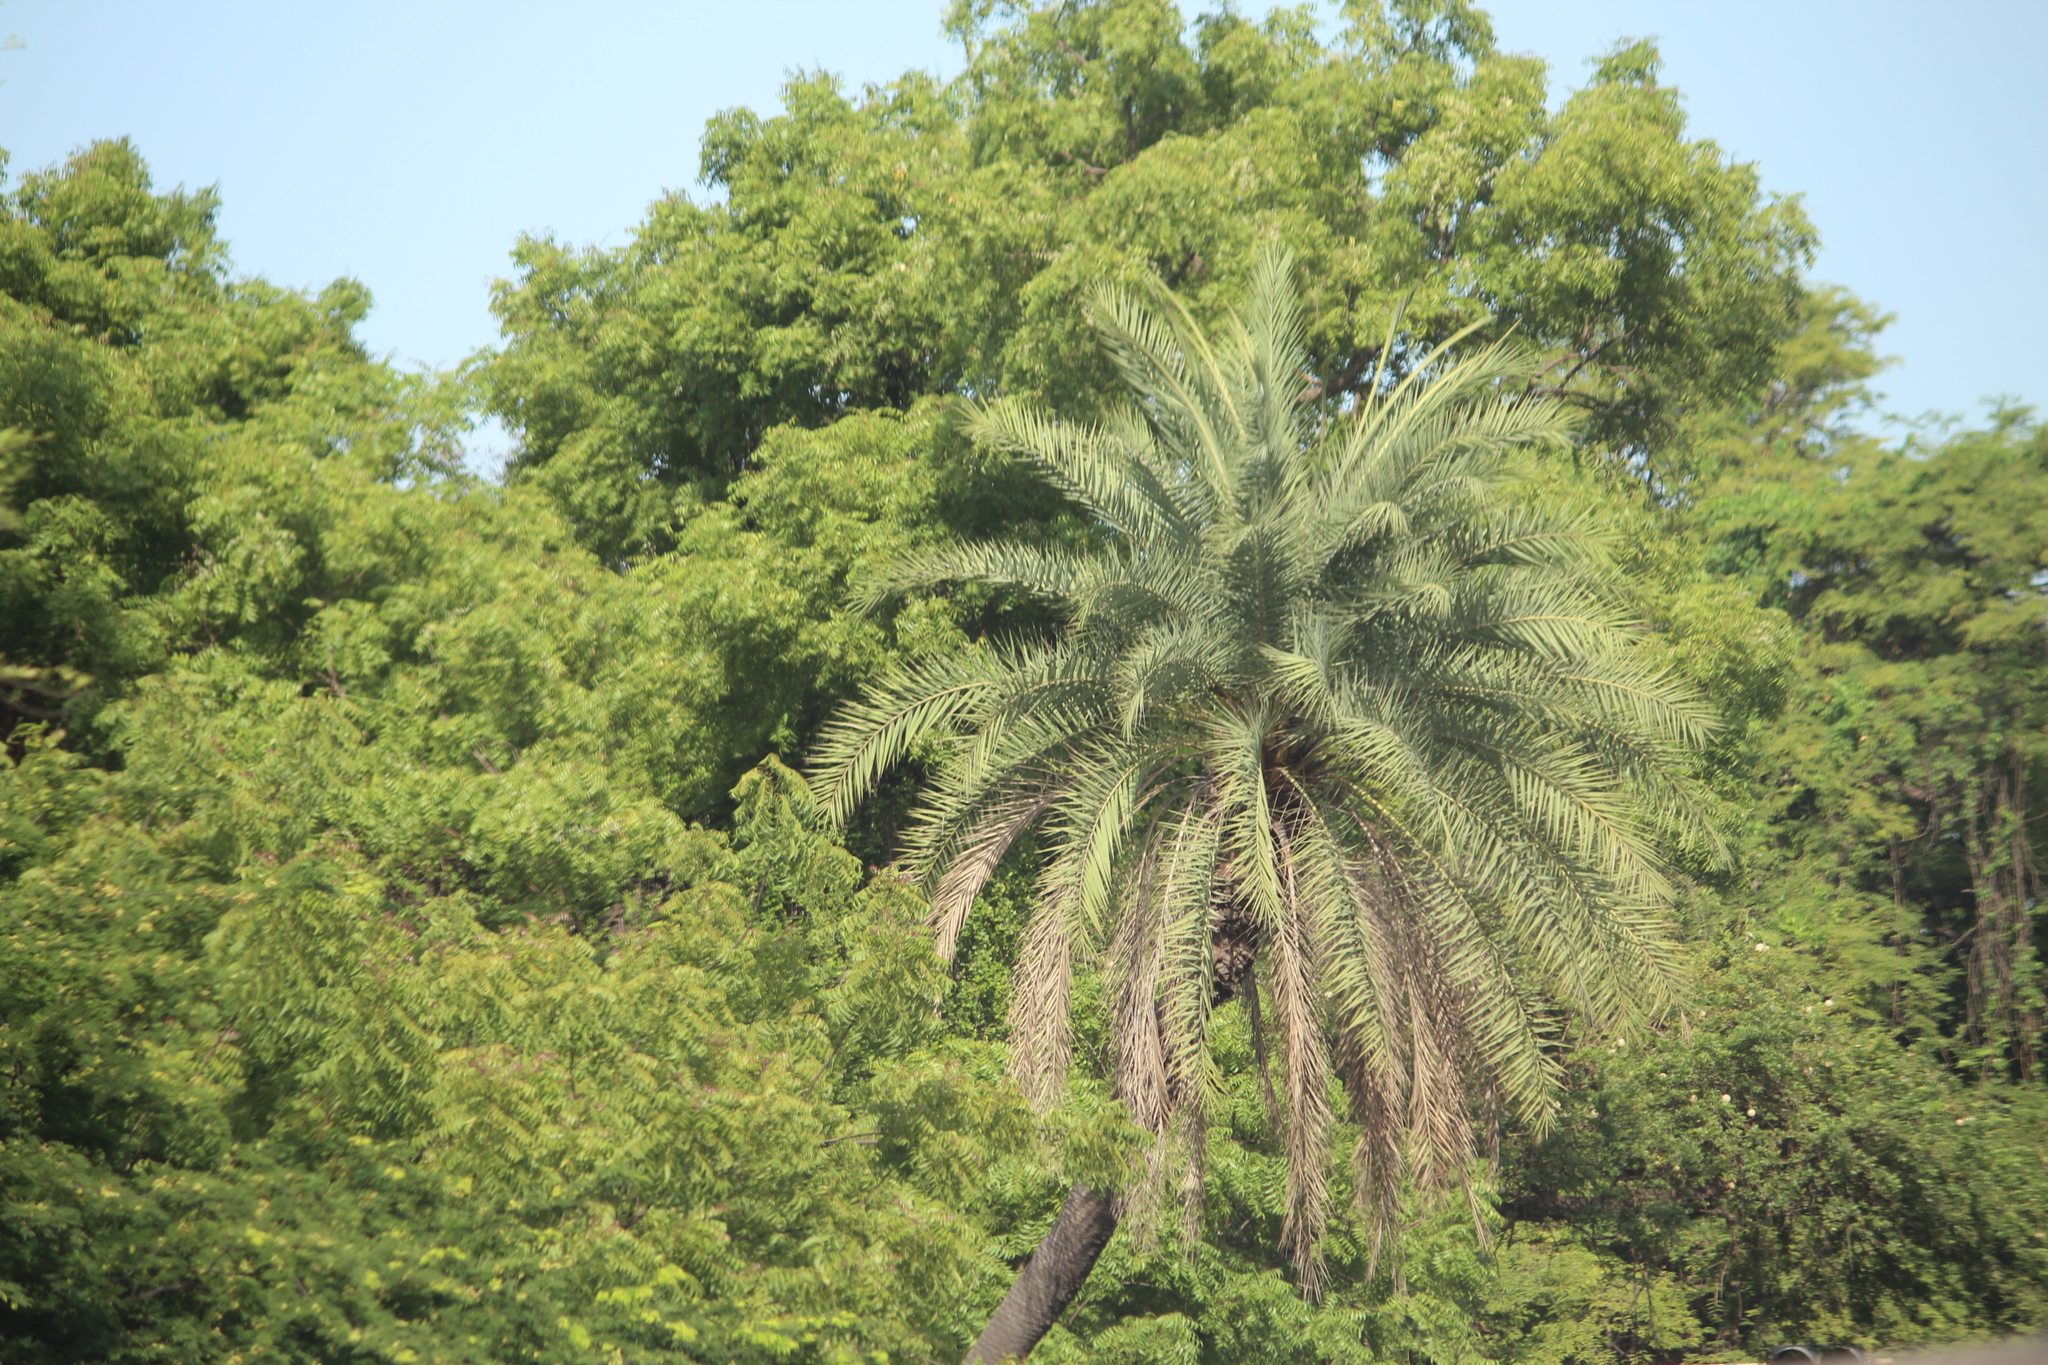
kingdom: Plantae
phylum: Tracheophyta
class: Liliopsida
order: Arecales
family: Arecaceae
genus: Phoenix
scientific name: Phoenix sylvestris
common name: Wild date palm
